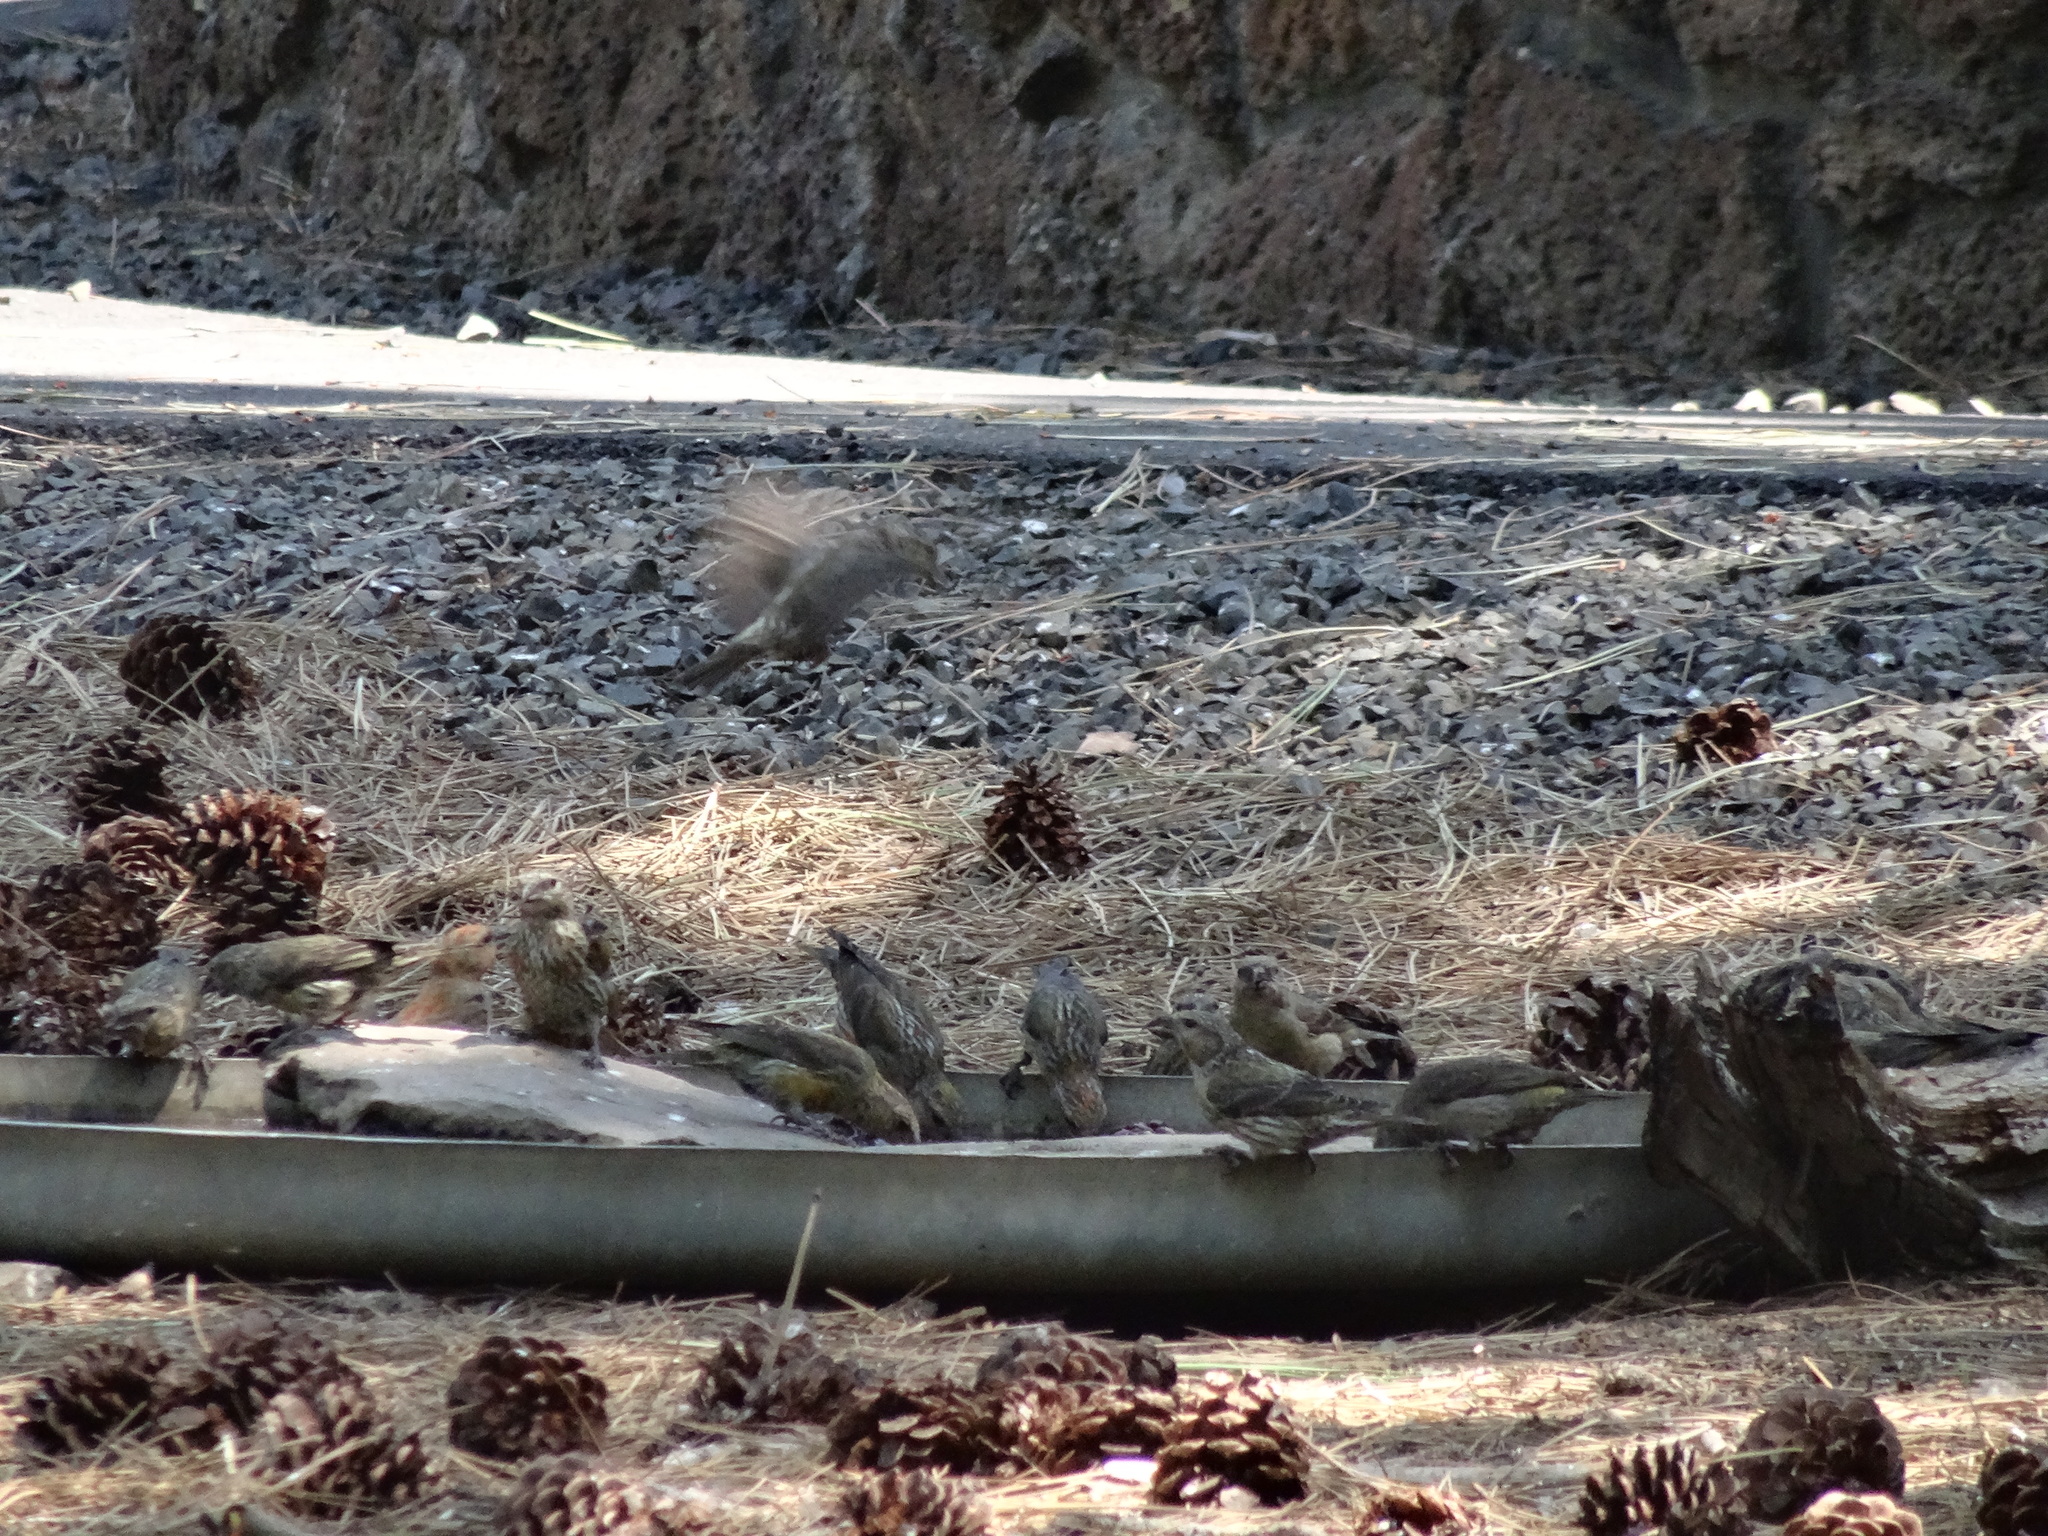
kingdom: Animalia
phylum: Chordata
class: Aves
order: Passeriformes
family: Fringillidae
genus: Loxia
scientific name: Loxia curvirostra
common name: Red crossbill
